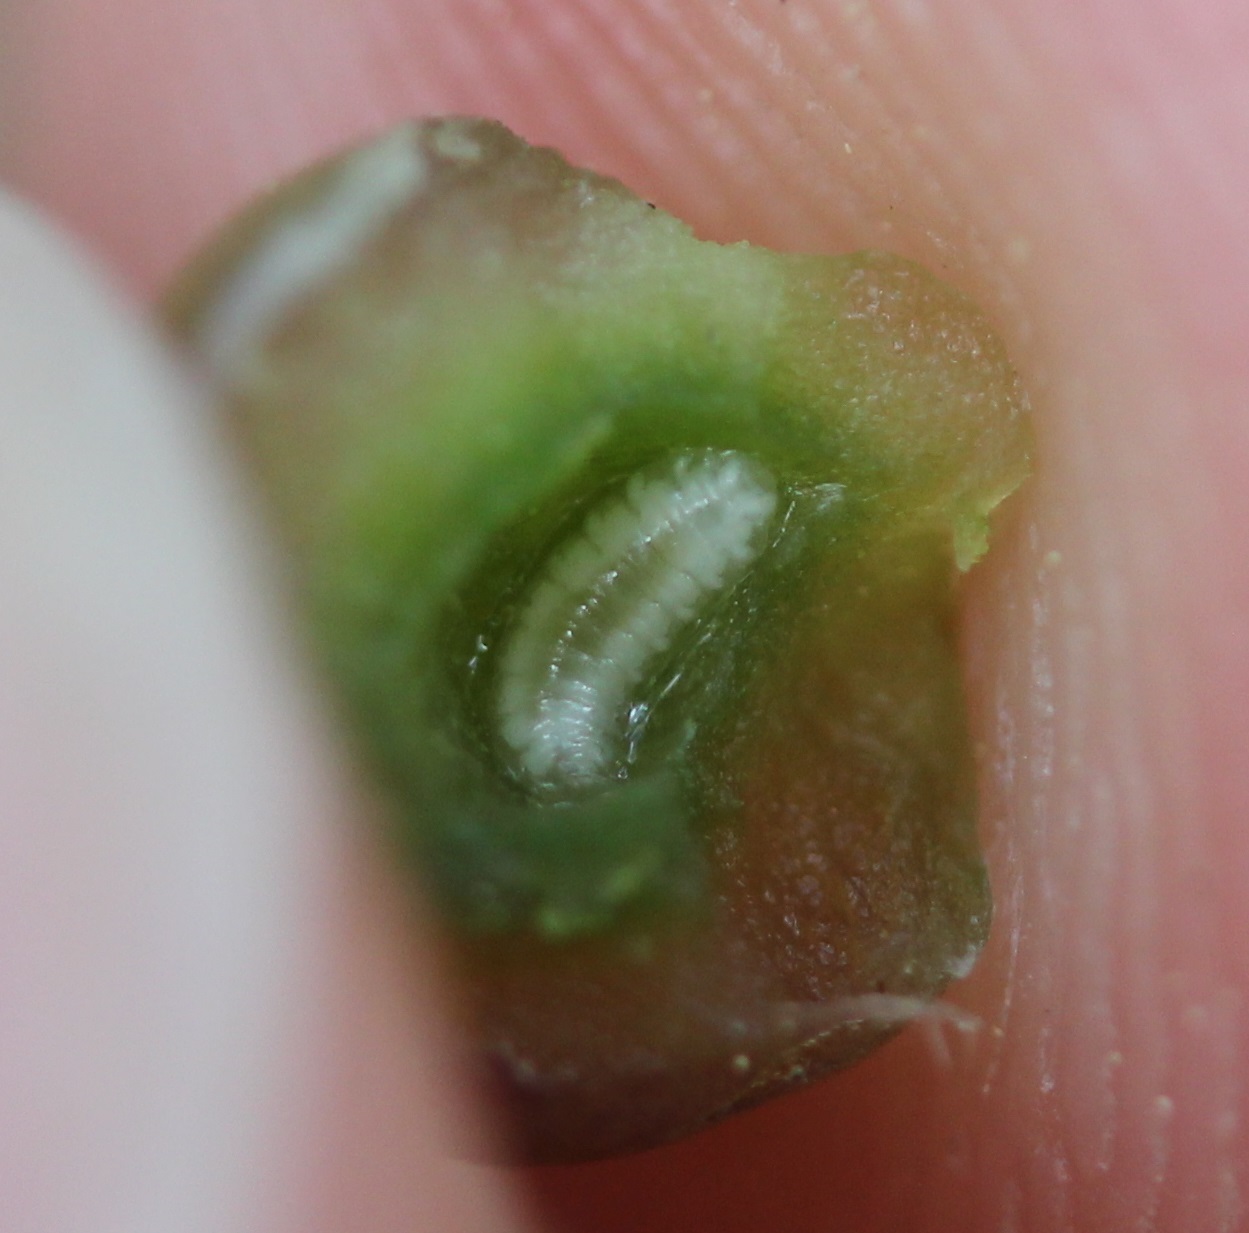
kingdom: Animalia
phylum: Arthropoda
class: Insecta
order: Diptera
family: Cecidomyiidae
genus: Dasineura
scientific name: Dasineura pellex
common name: Ash bullet gall midge
